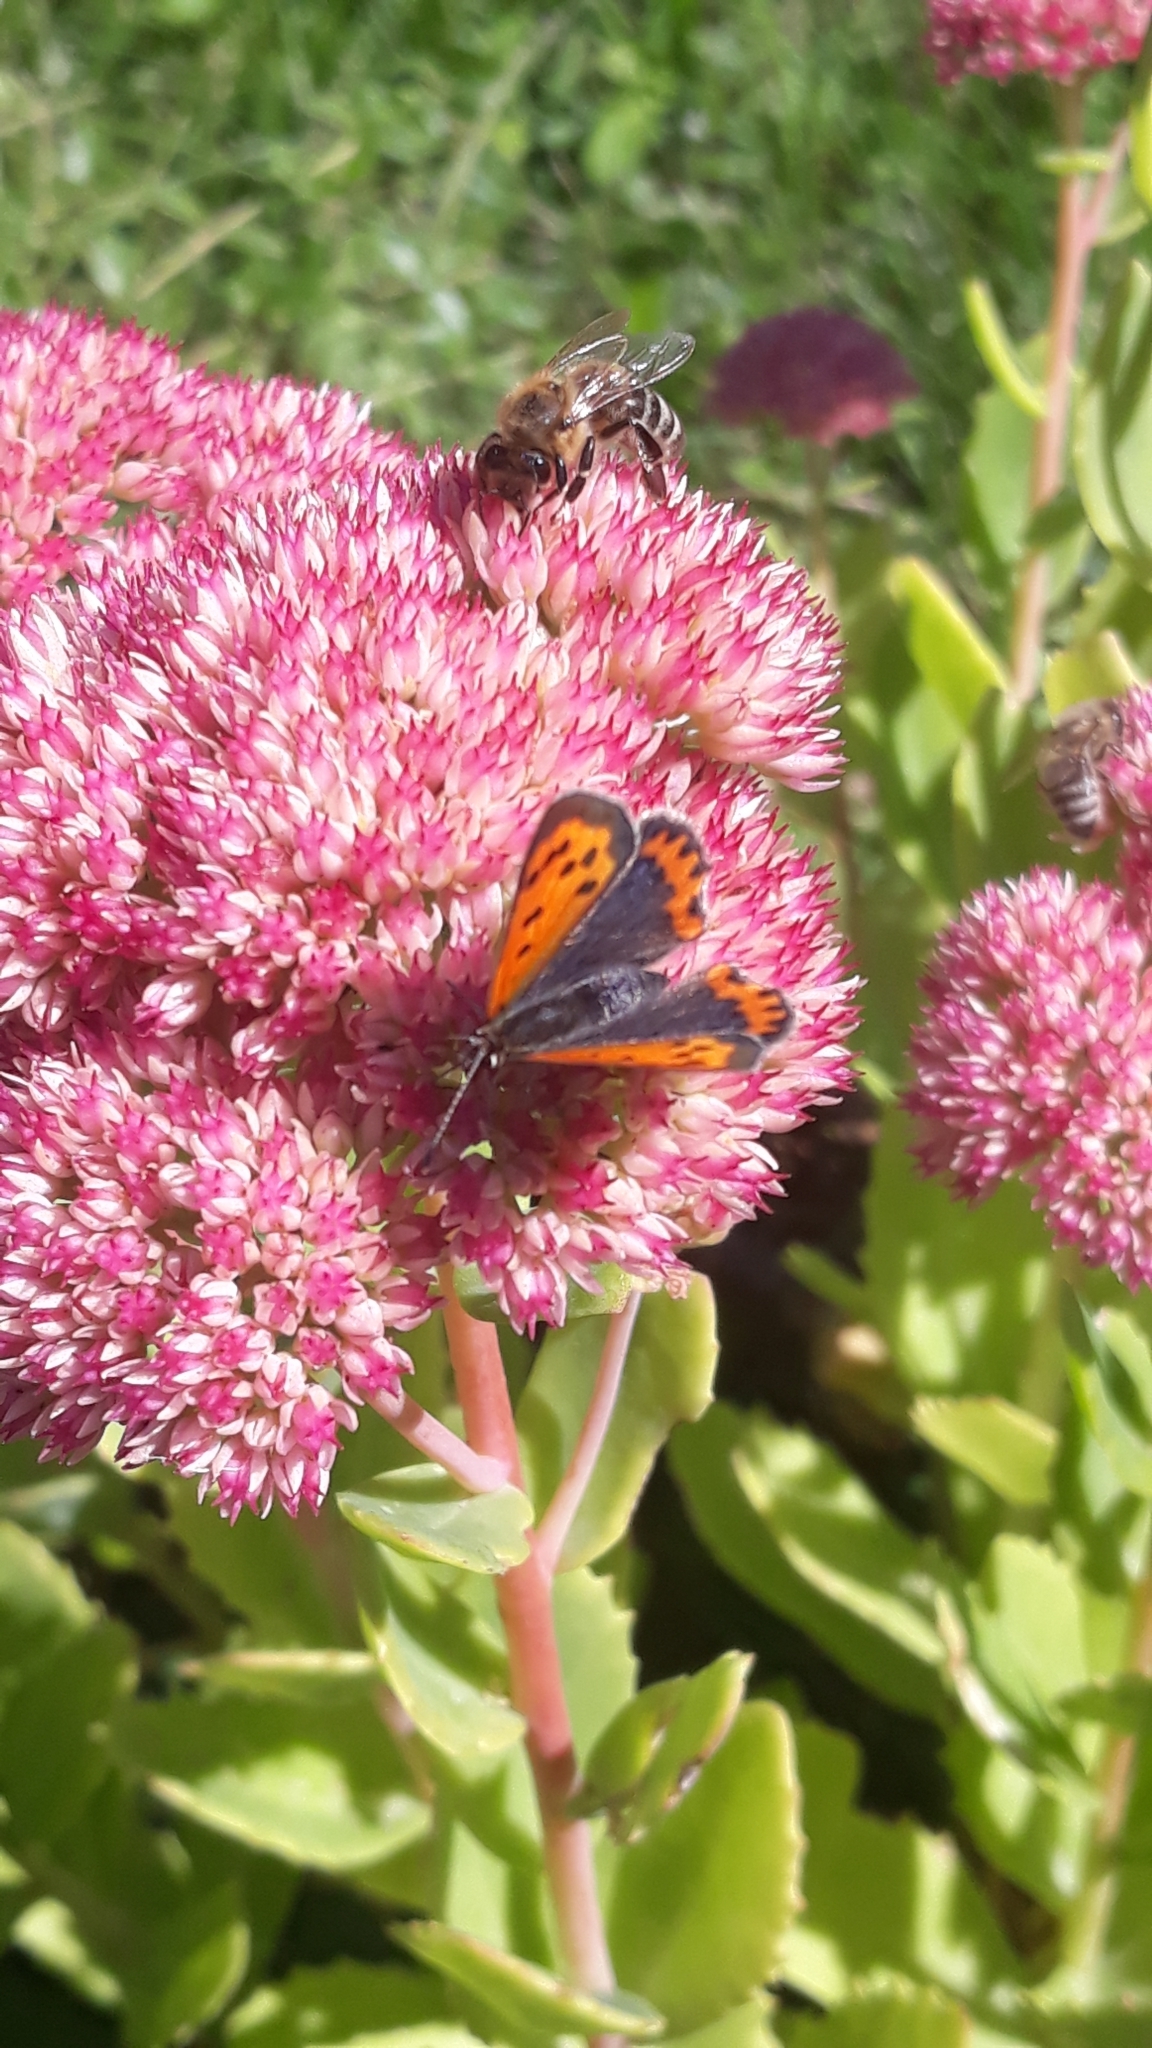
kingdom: Animalia
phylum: Arthropoda
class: Insecta
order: Lepidoptera
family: Lycaenidae
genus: Lycaena
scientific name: Lycaena phlaeas
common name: Small copper
